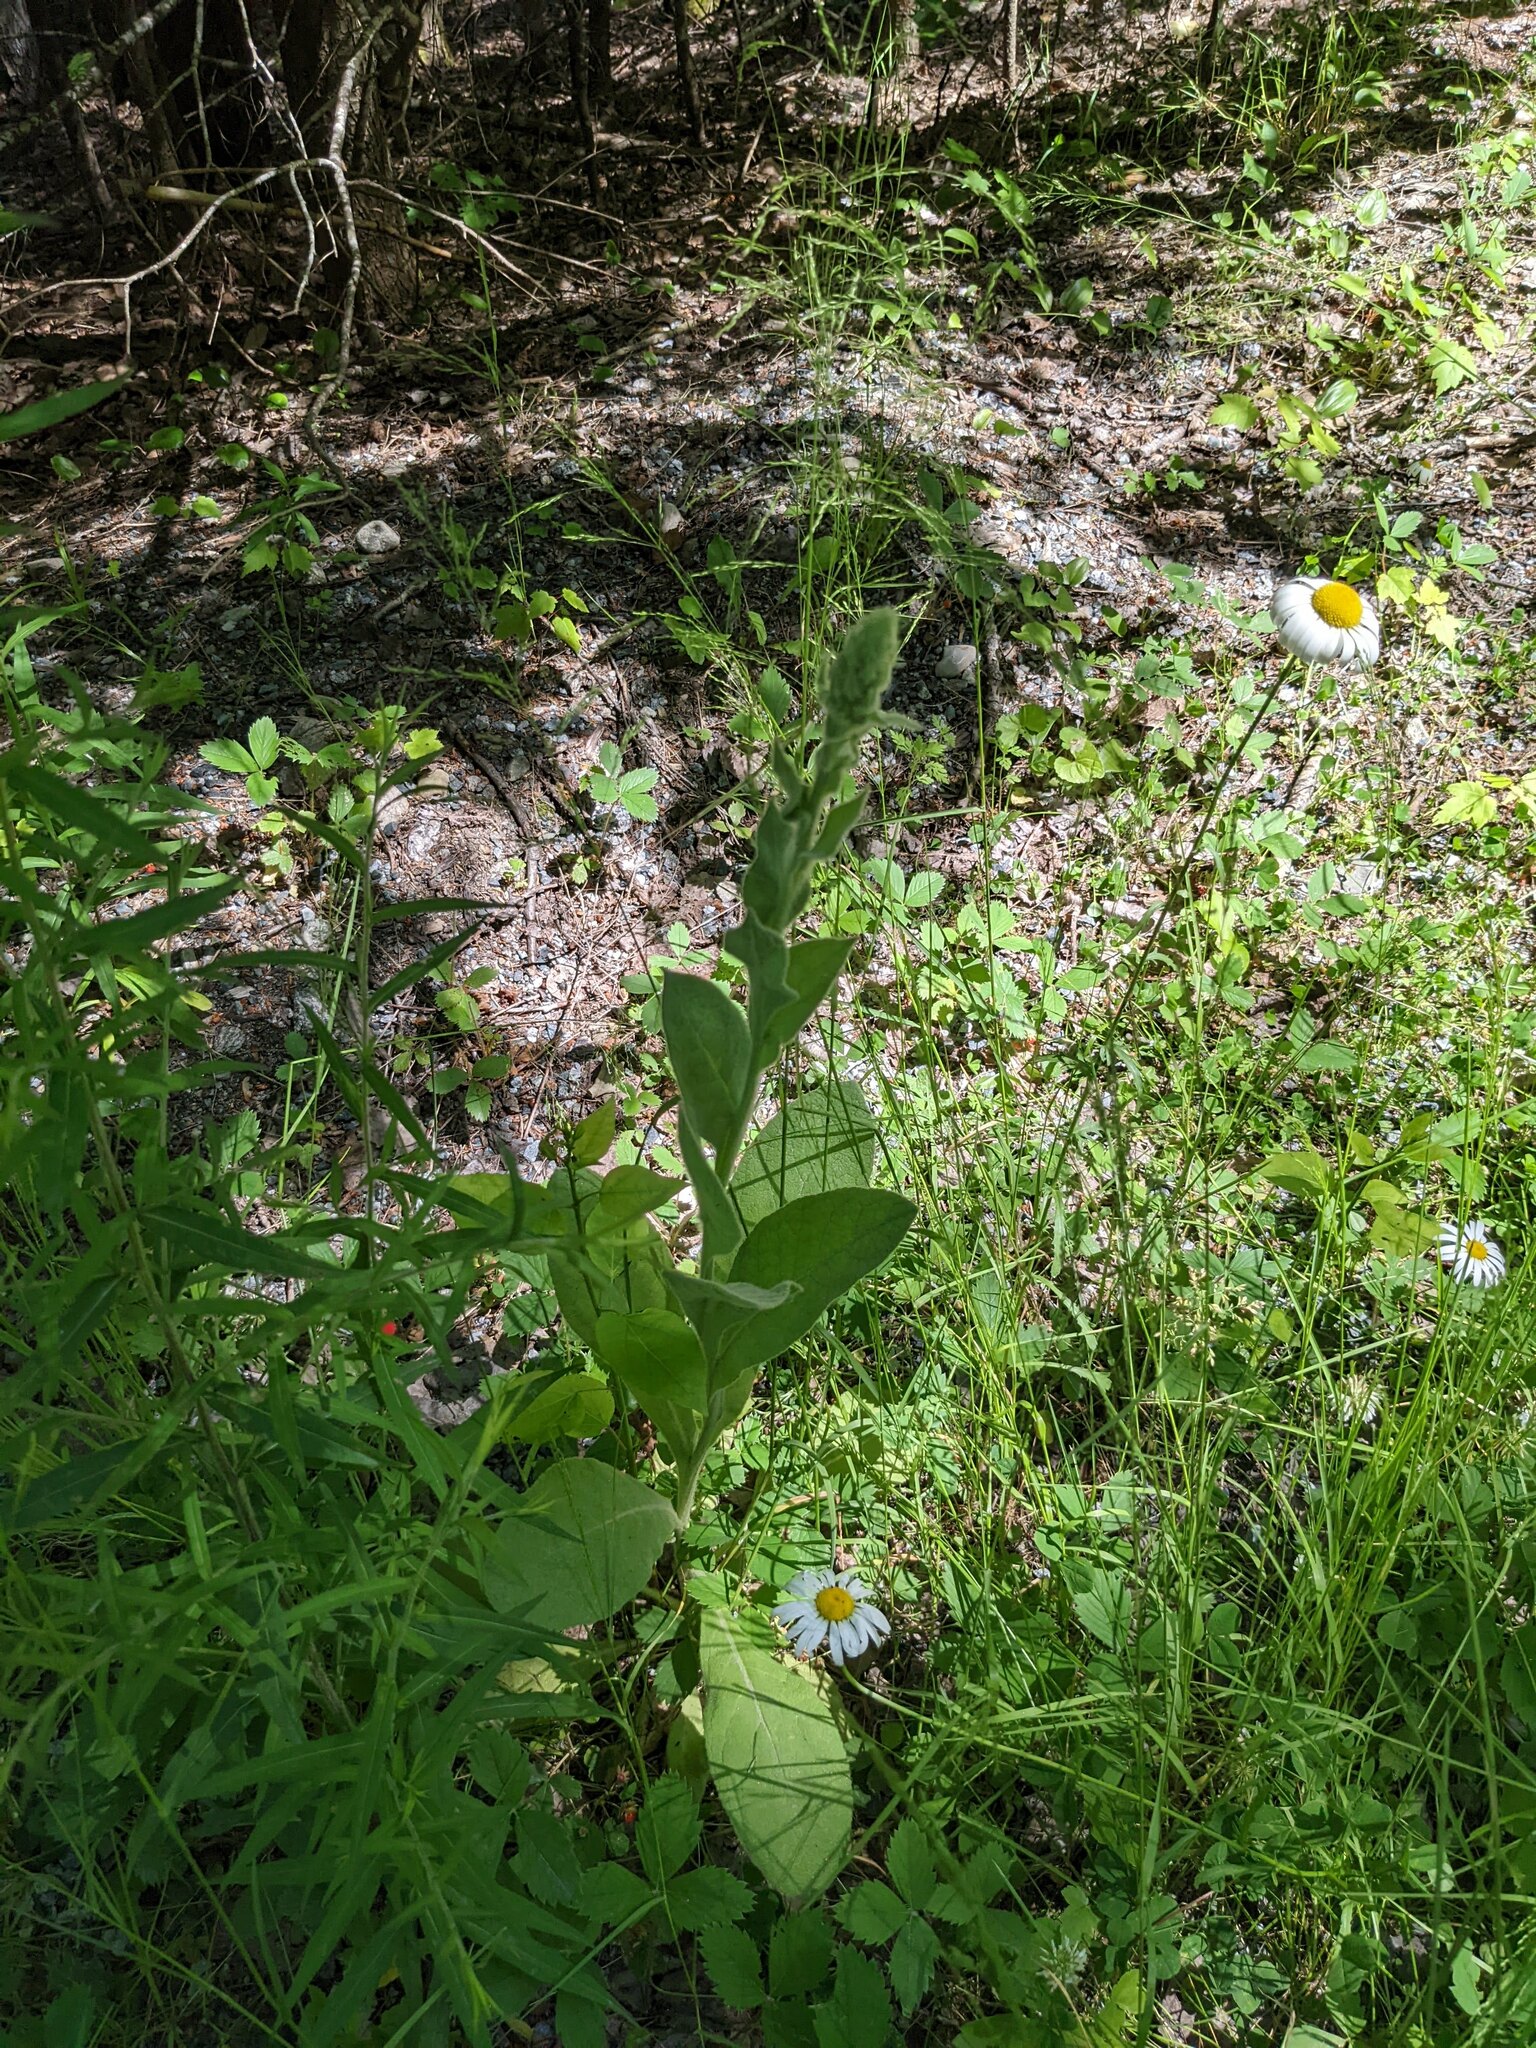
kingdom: Plantae
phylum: Tracheophyta
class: Magnoliopsida
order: Lamiales
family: Scrophulariaceae
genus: Verbascum
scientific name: Verbascum thapsus
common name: Common mullein
